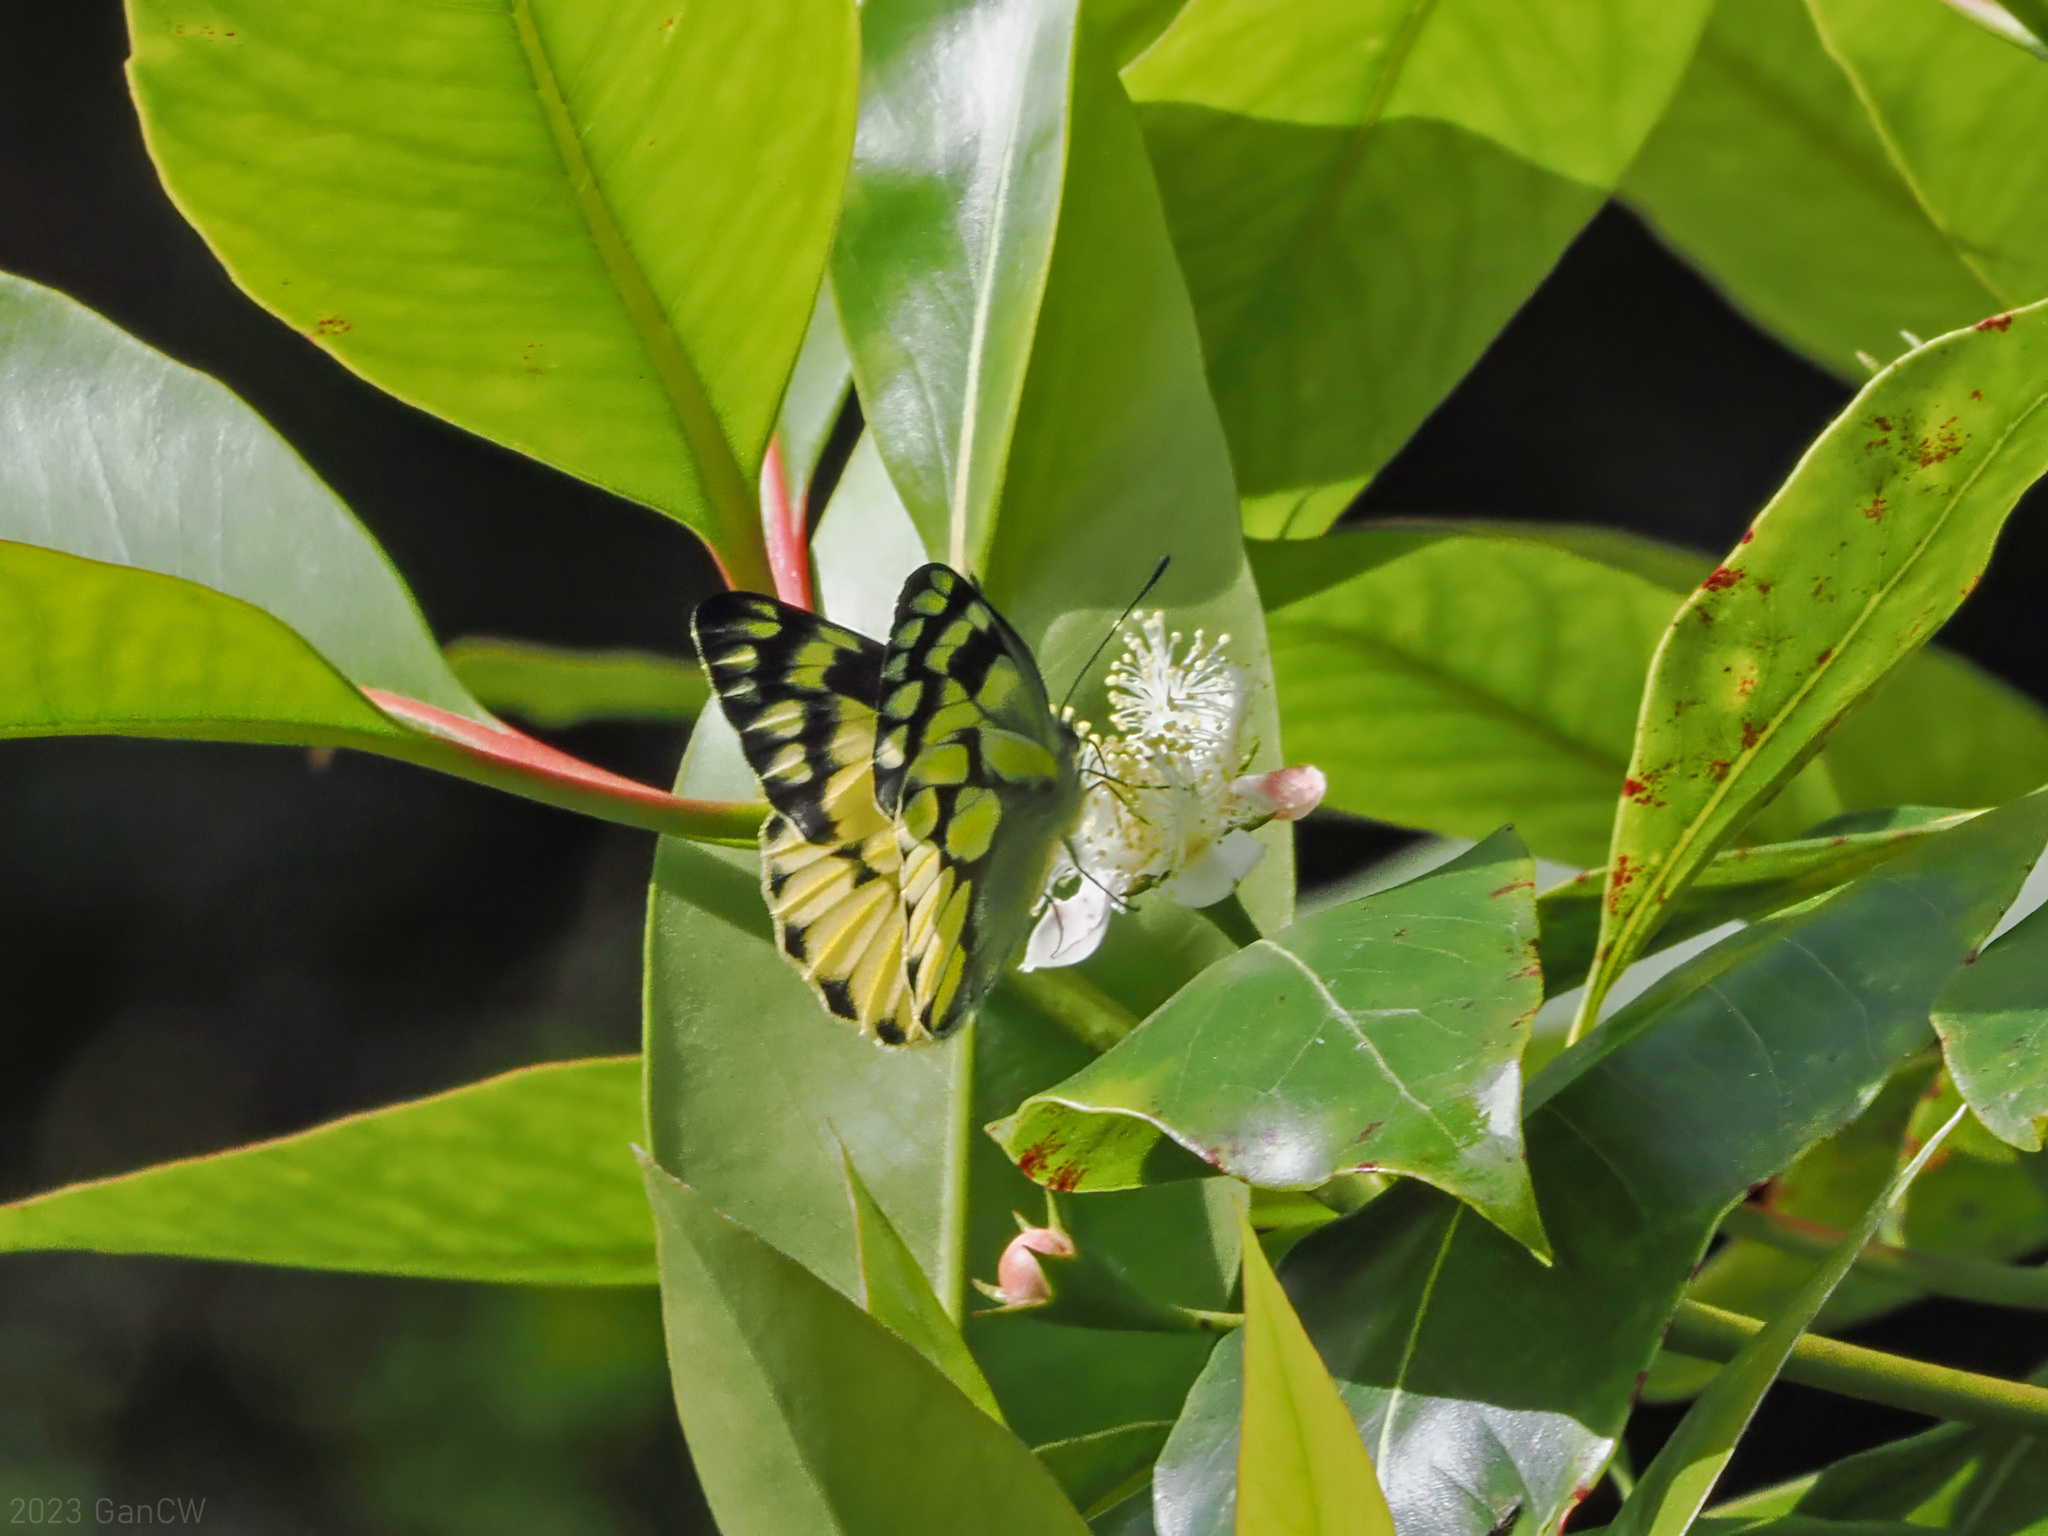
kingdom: Animalia
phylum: Arthropoda
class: Insecta
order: Lepidoptera
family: Pieridae
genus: Delias
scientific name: Delias battana
